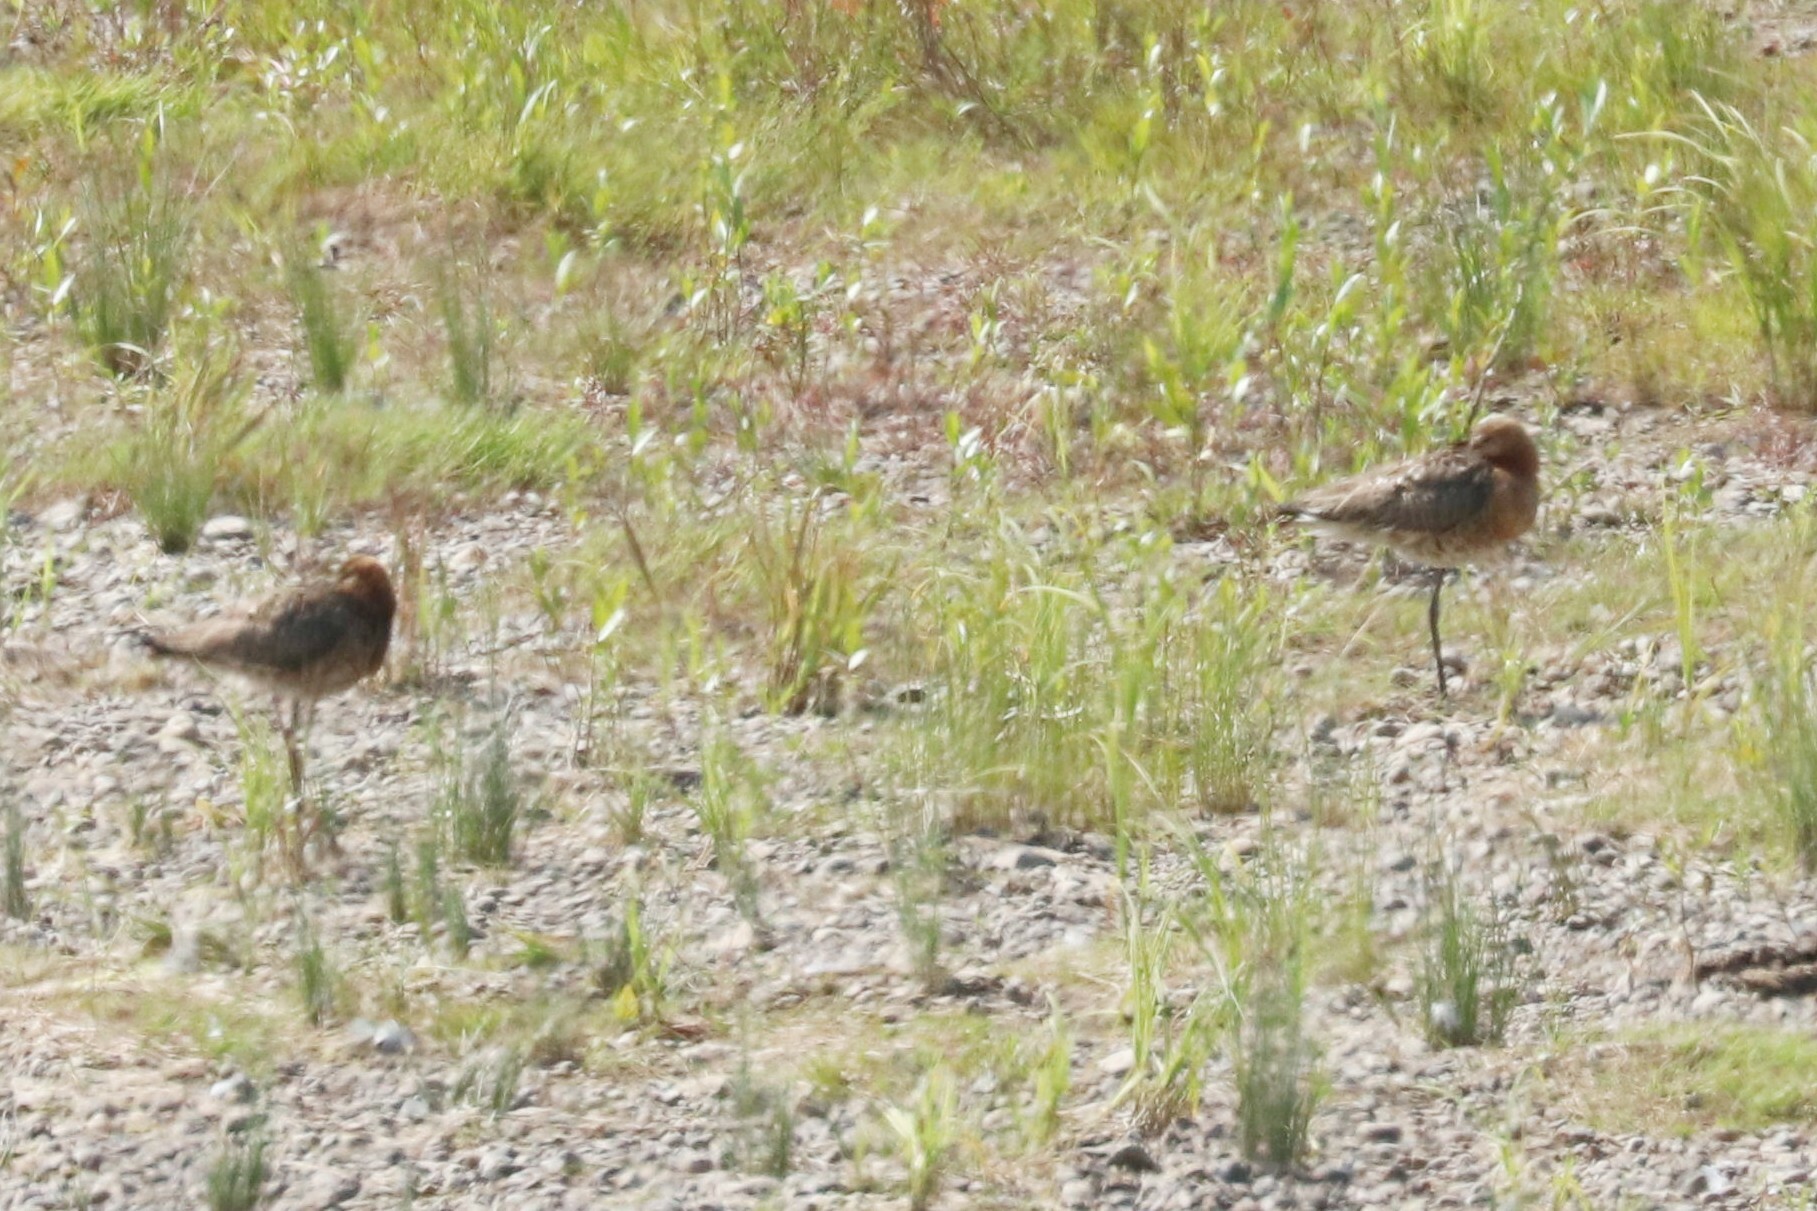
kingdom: Animalia
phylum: Chordata
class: Aves
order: Charadriiformes
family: Scolopacidae
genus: Limosa
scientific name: Limosa limosa
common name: Black-tailed godwit
